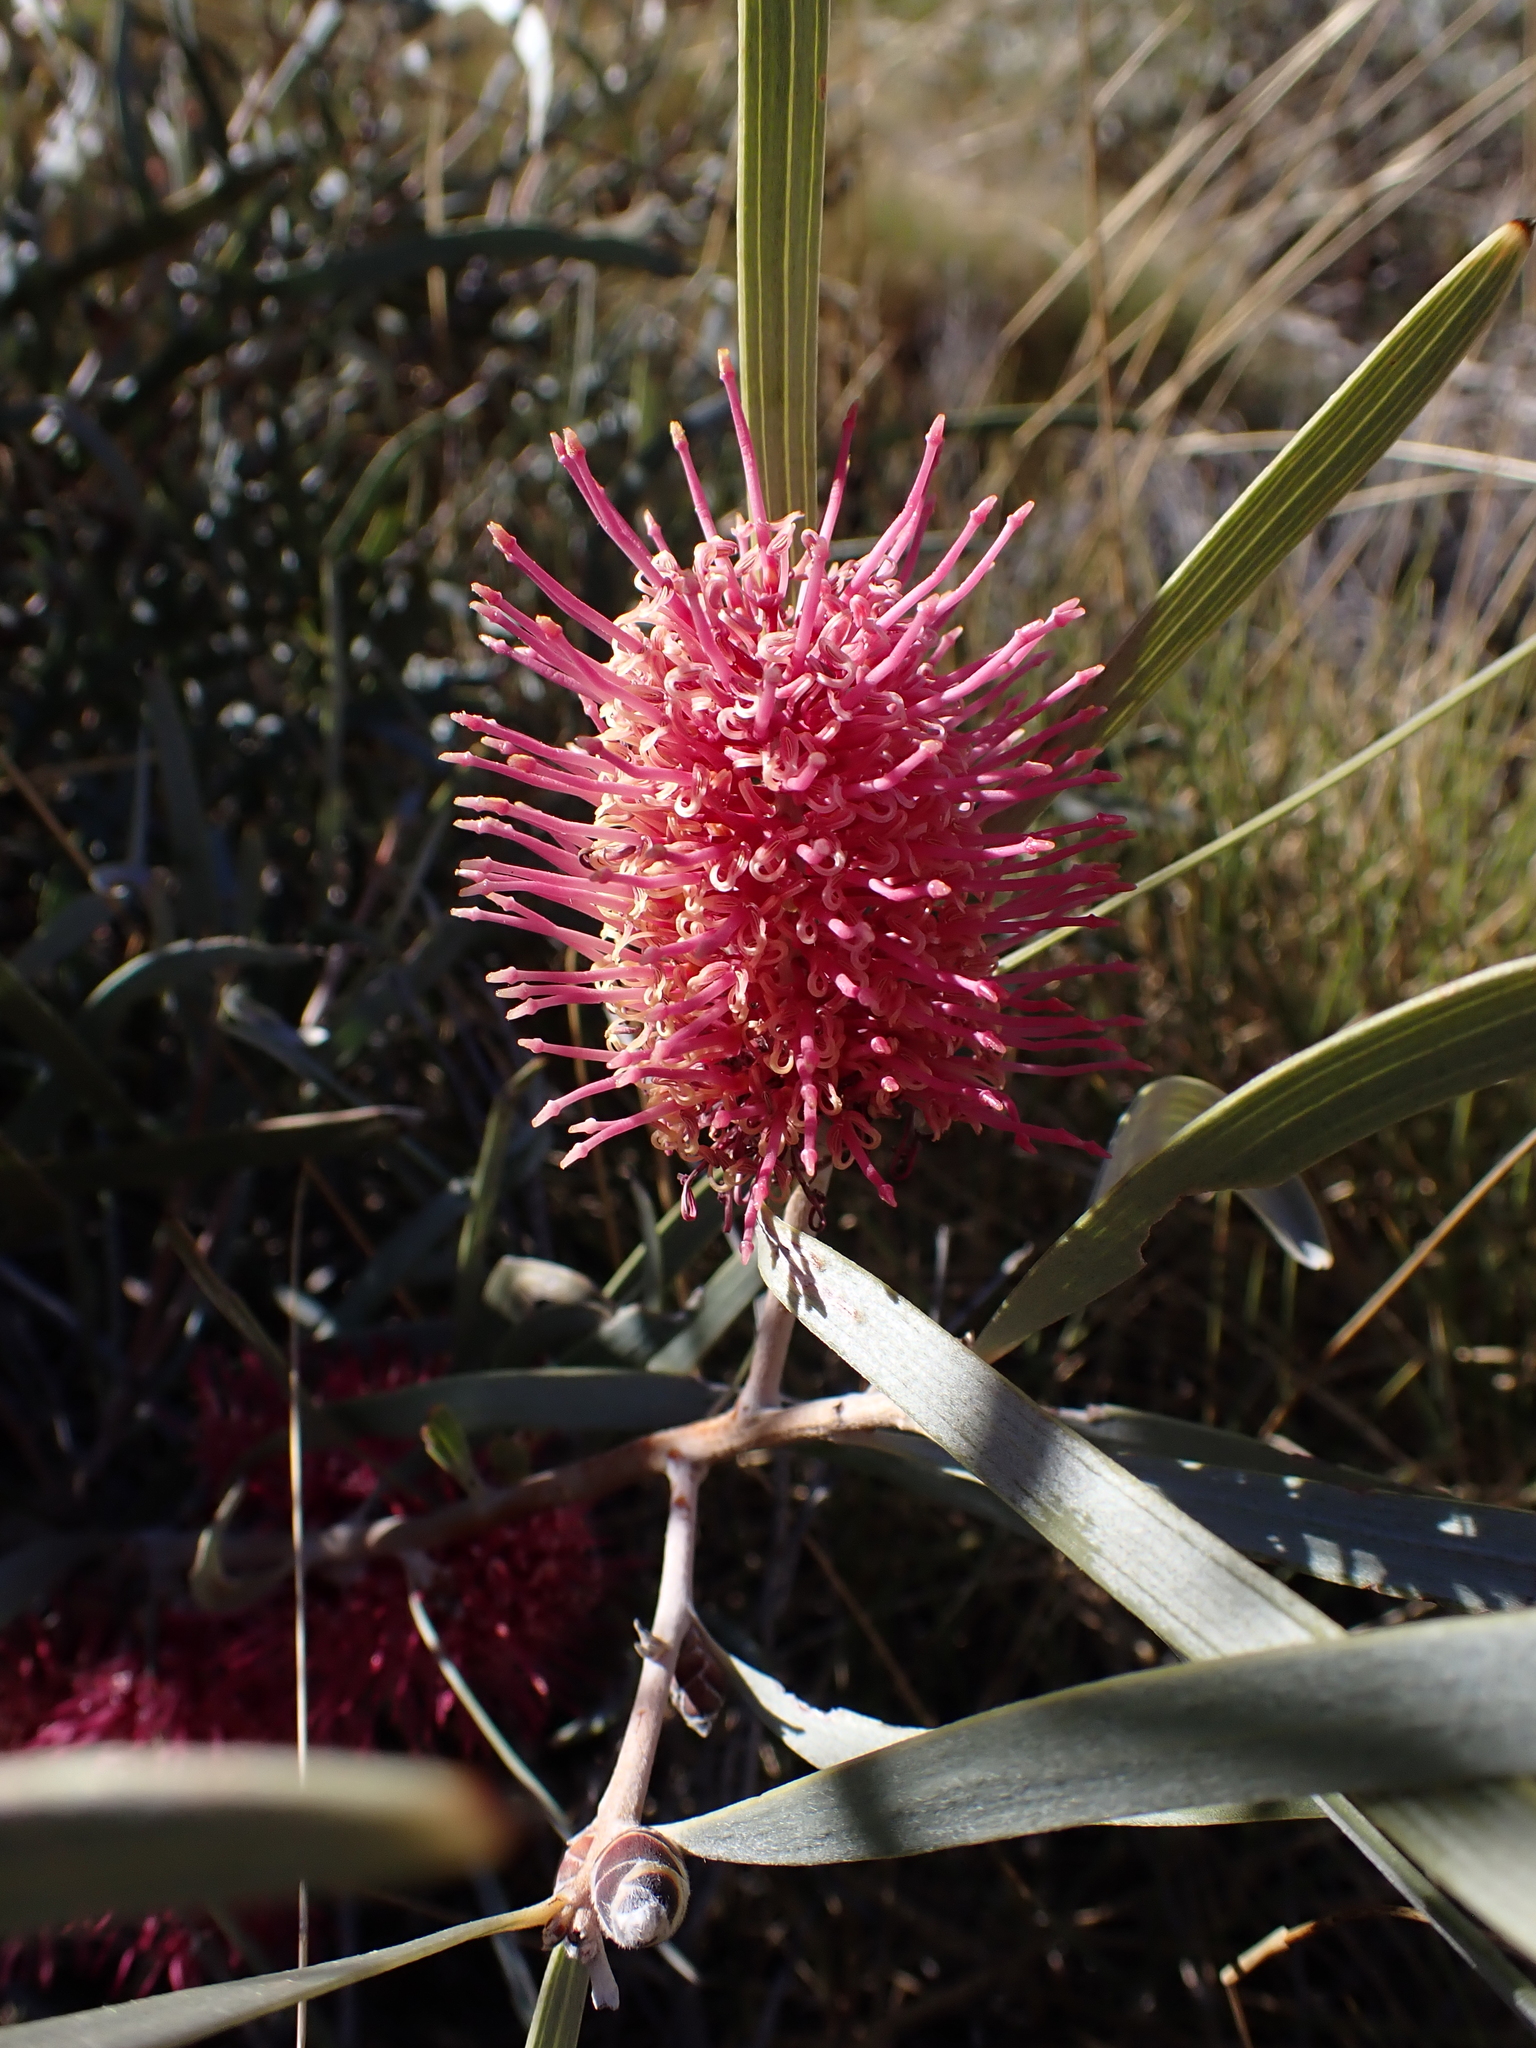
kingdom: Plantae
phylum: Tracheophyta
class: Magnoliopsida
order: Proteales
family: Proteaceae
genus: Hakea
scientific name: Hakea grammatophylla
